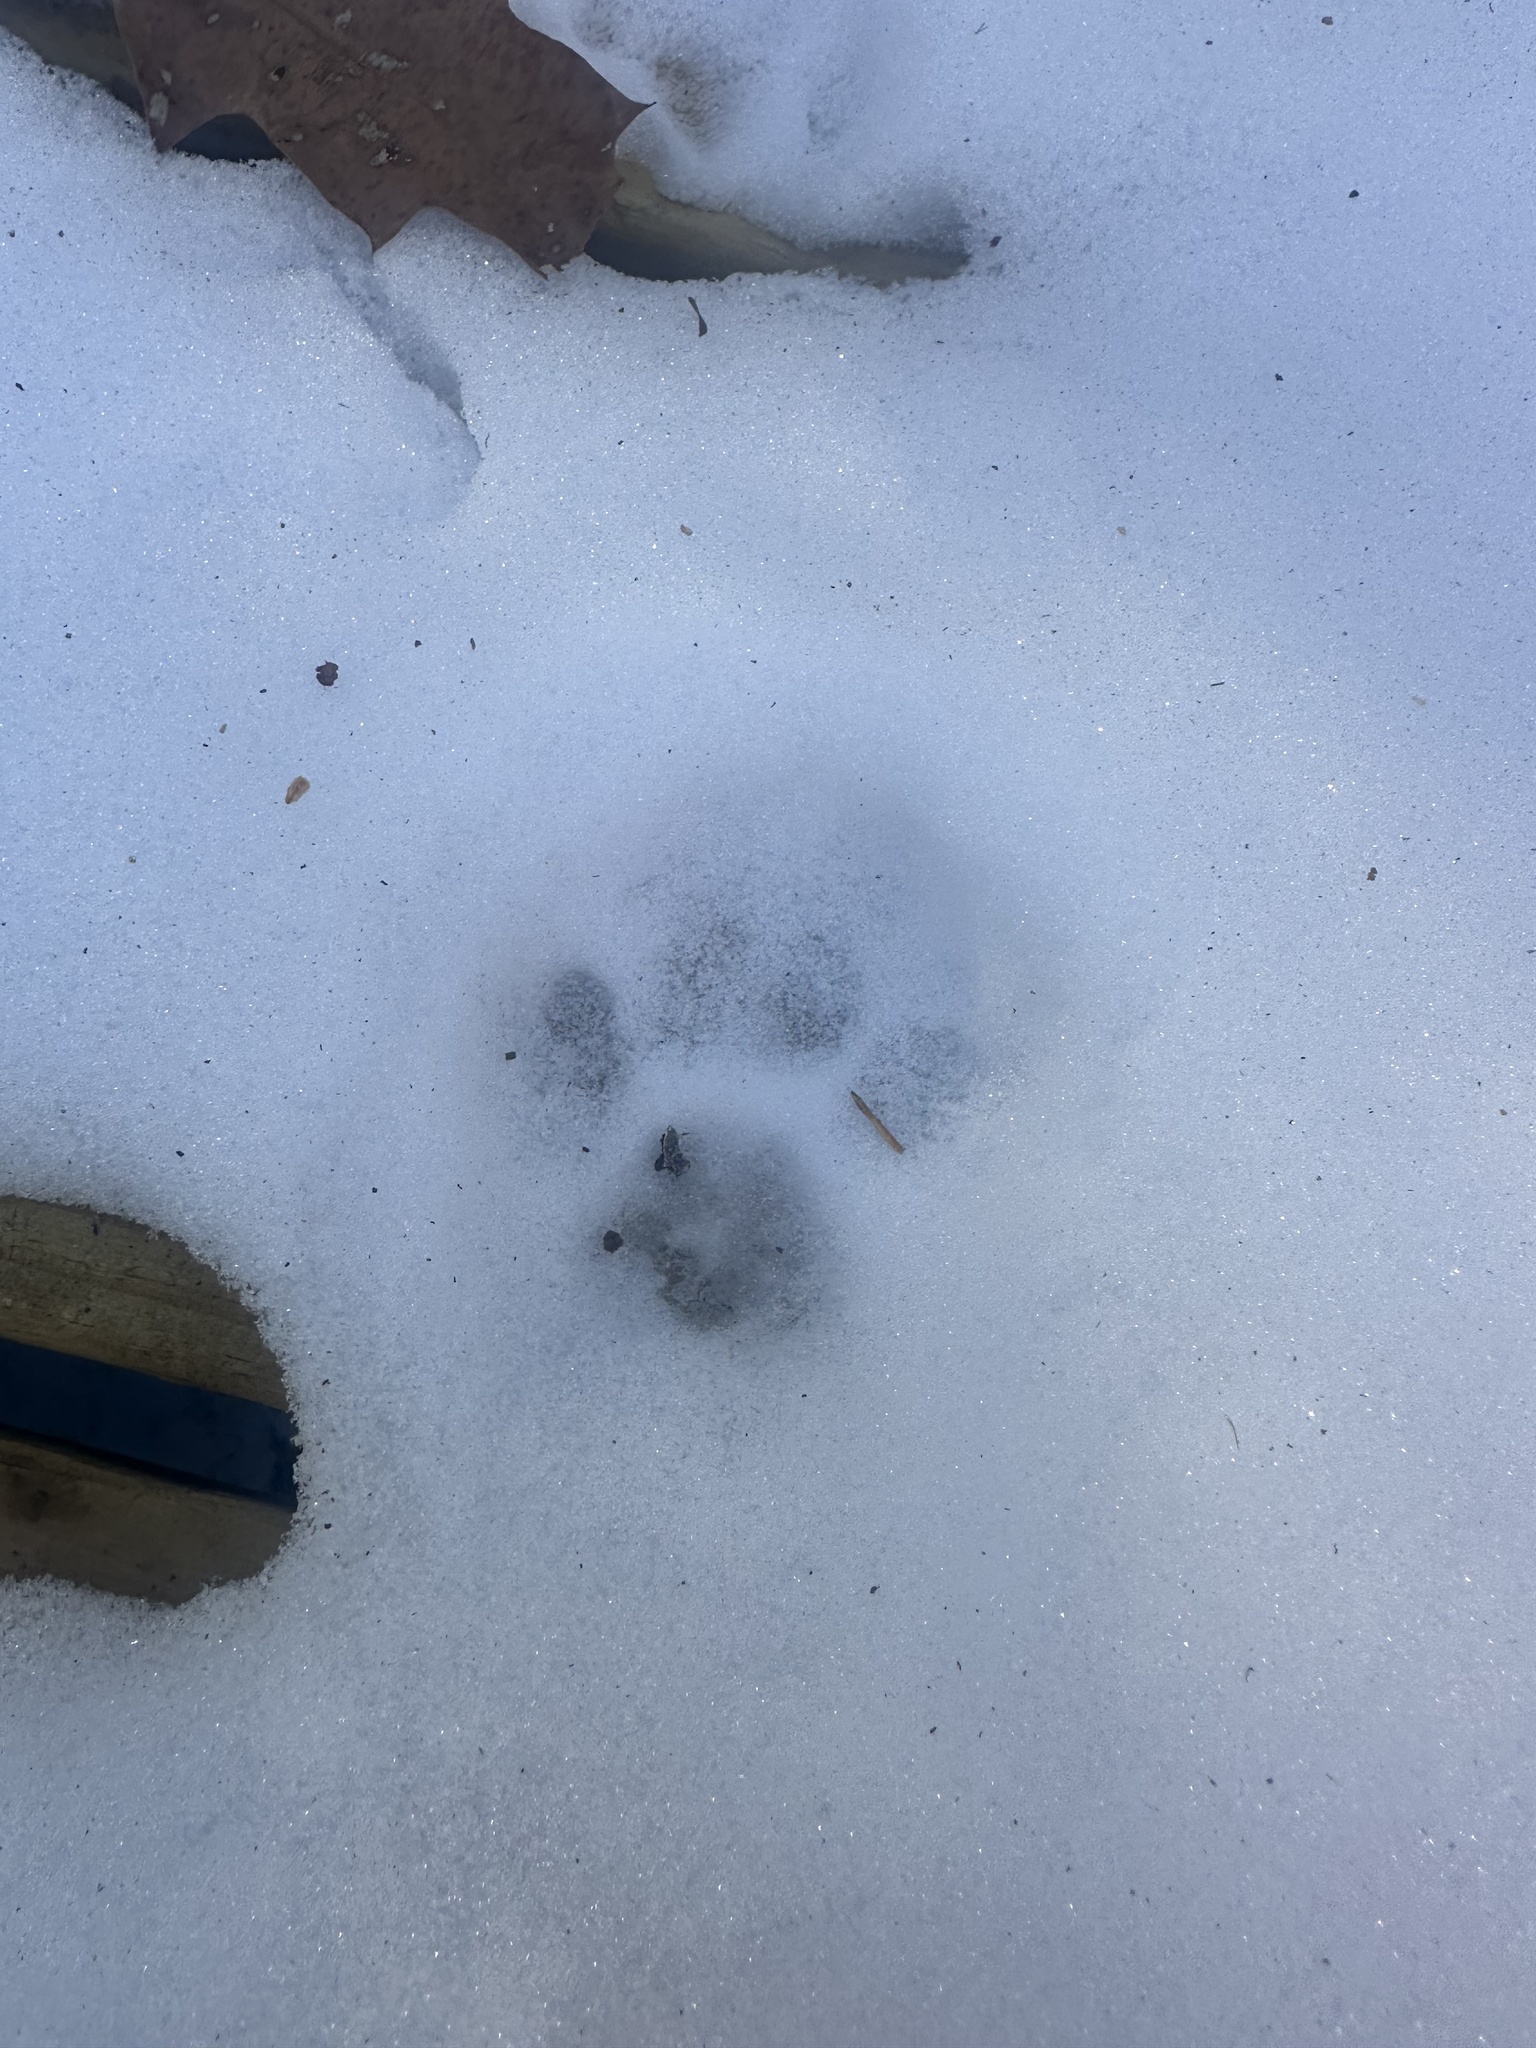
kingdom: Animalia
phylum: Chordata
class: Mammalia
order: Carnivora
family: Felidae
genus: Lynx
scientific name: Lynx rufus
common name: Bobcat
